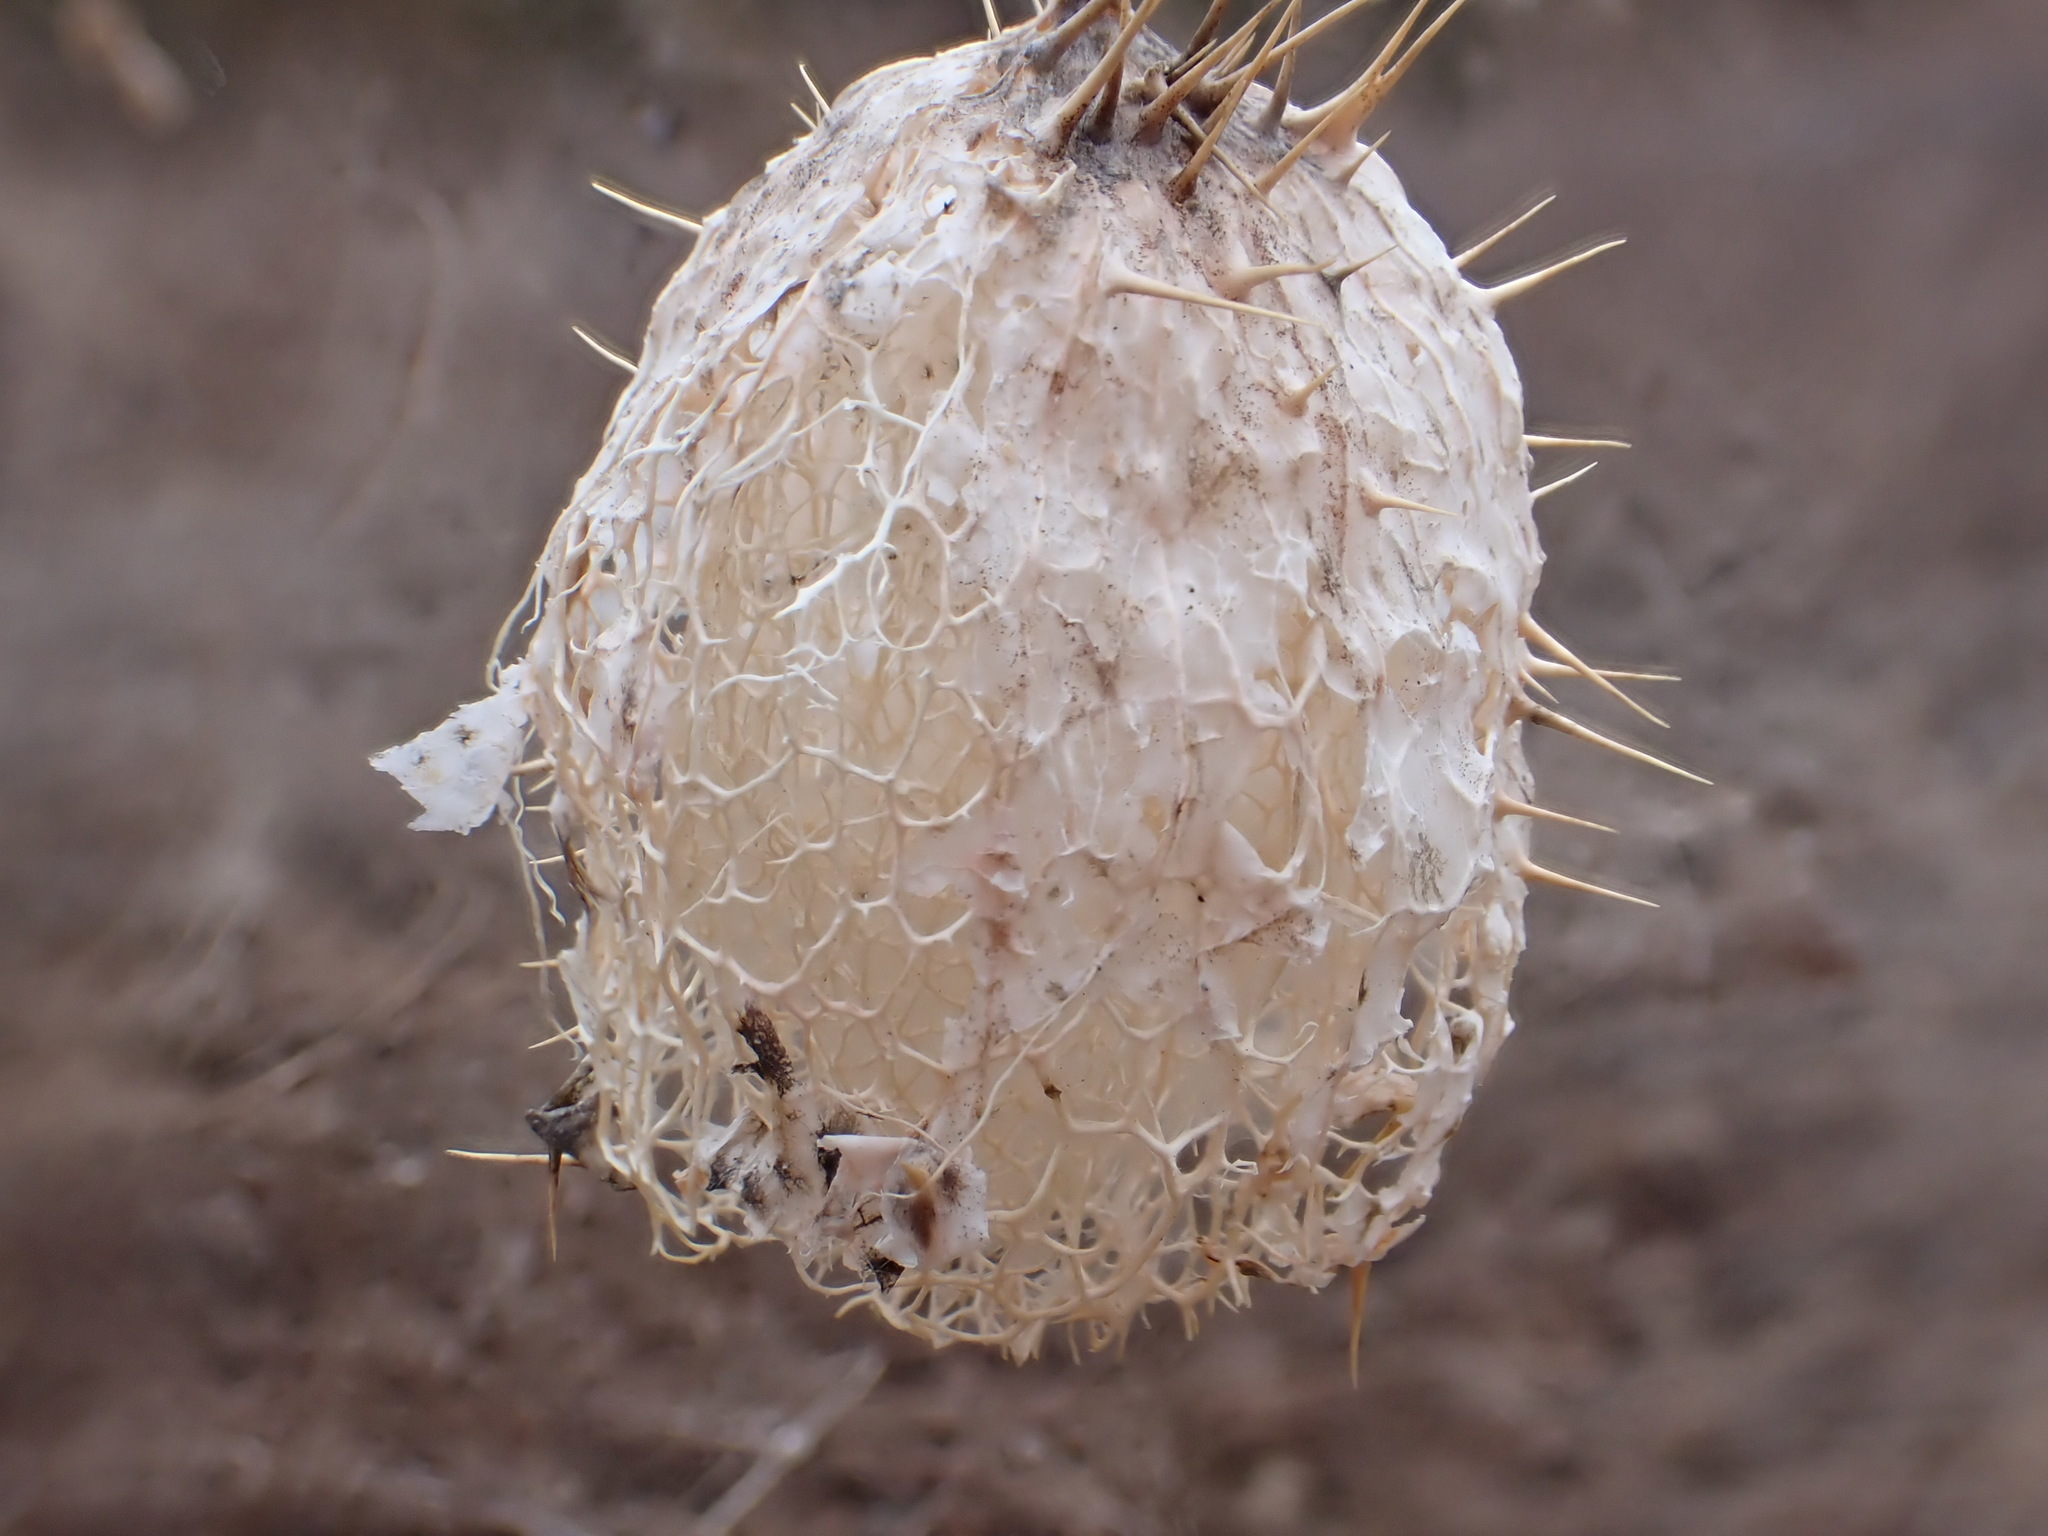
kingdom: Plantae
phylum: Tracheophyta
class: Magnoliopsida
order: Cucurbitales
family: Cucurbitaceae
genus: Echinocystis
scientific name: Echinocystis lobata
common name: Wild cucumber
